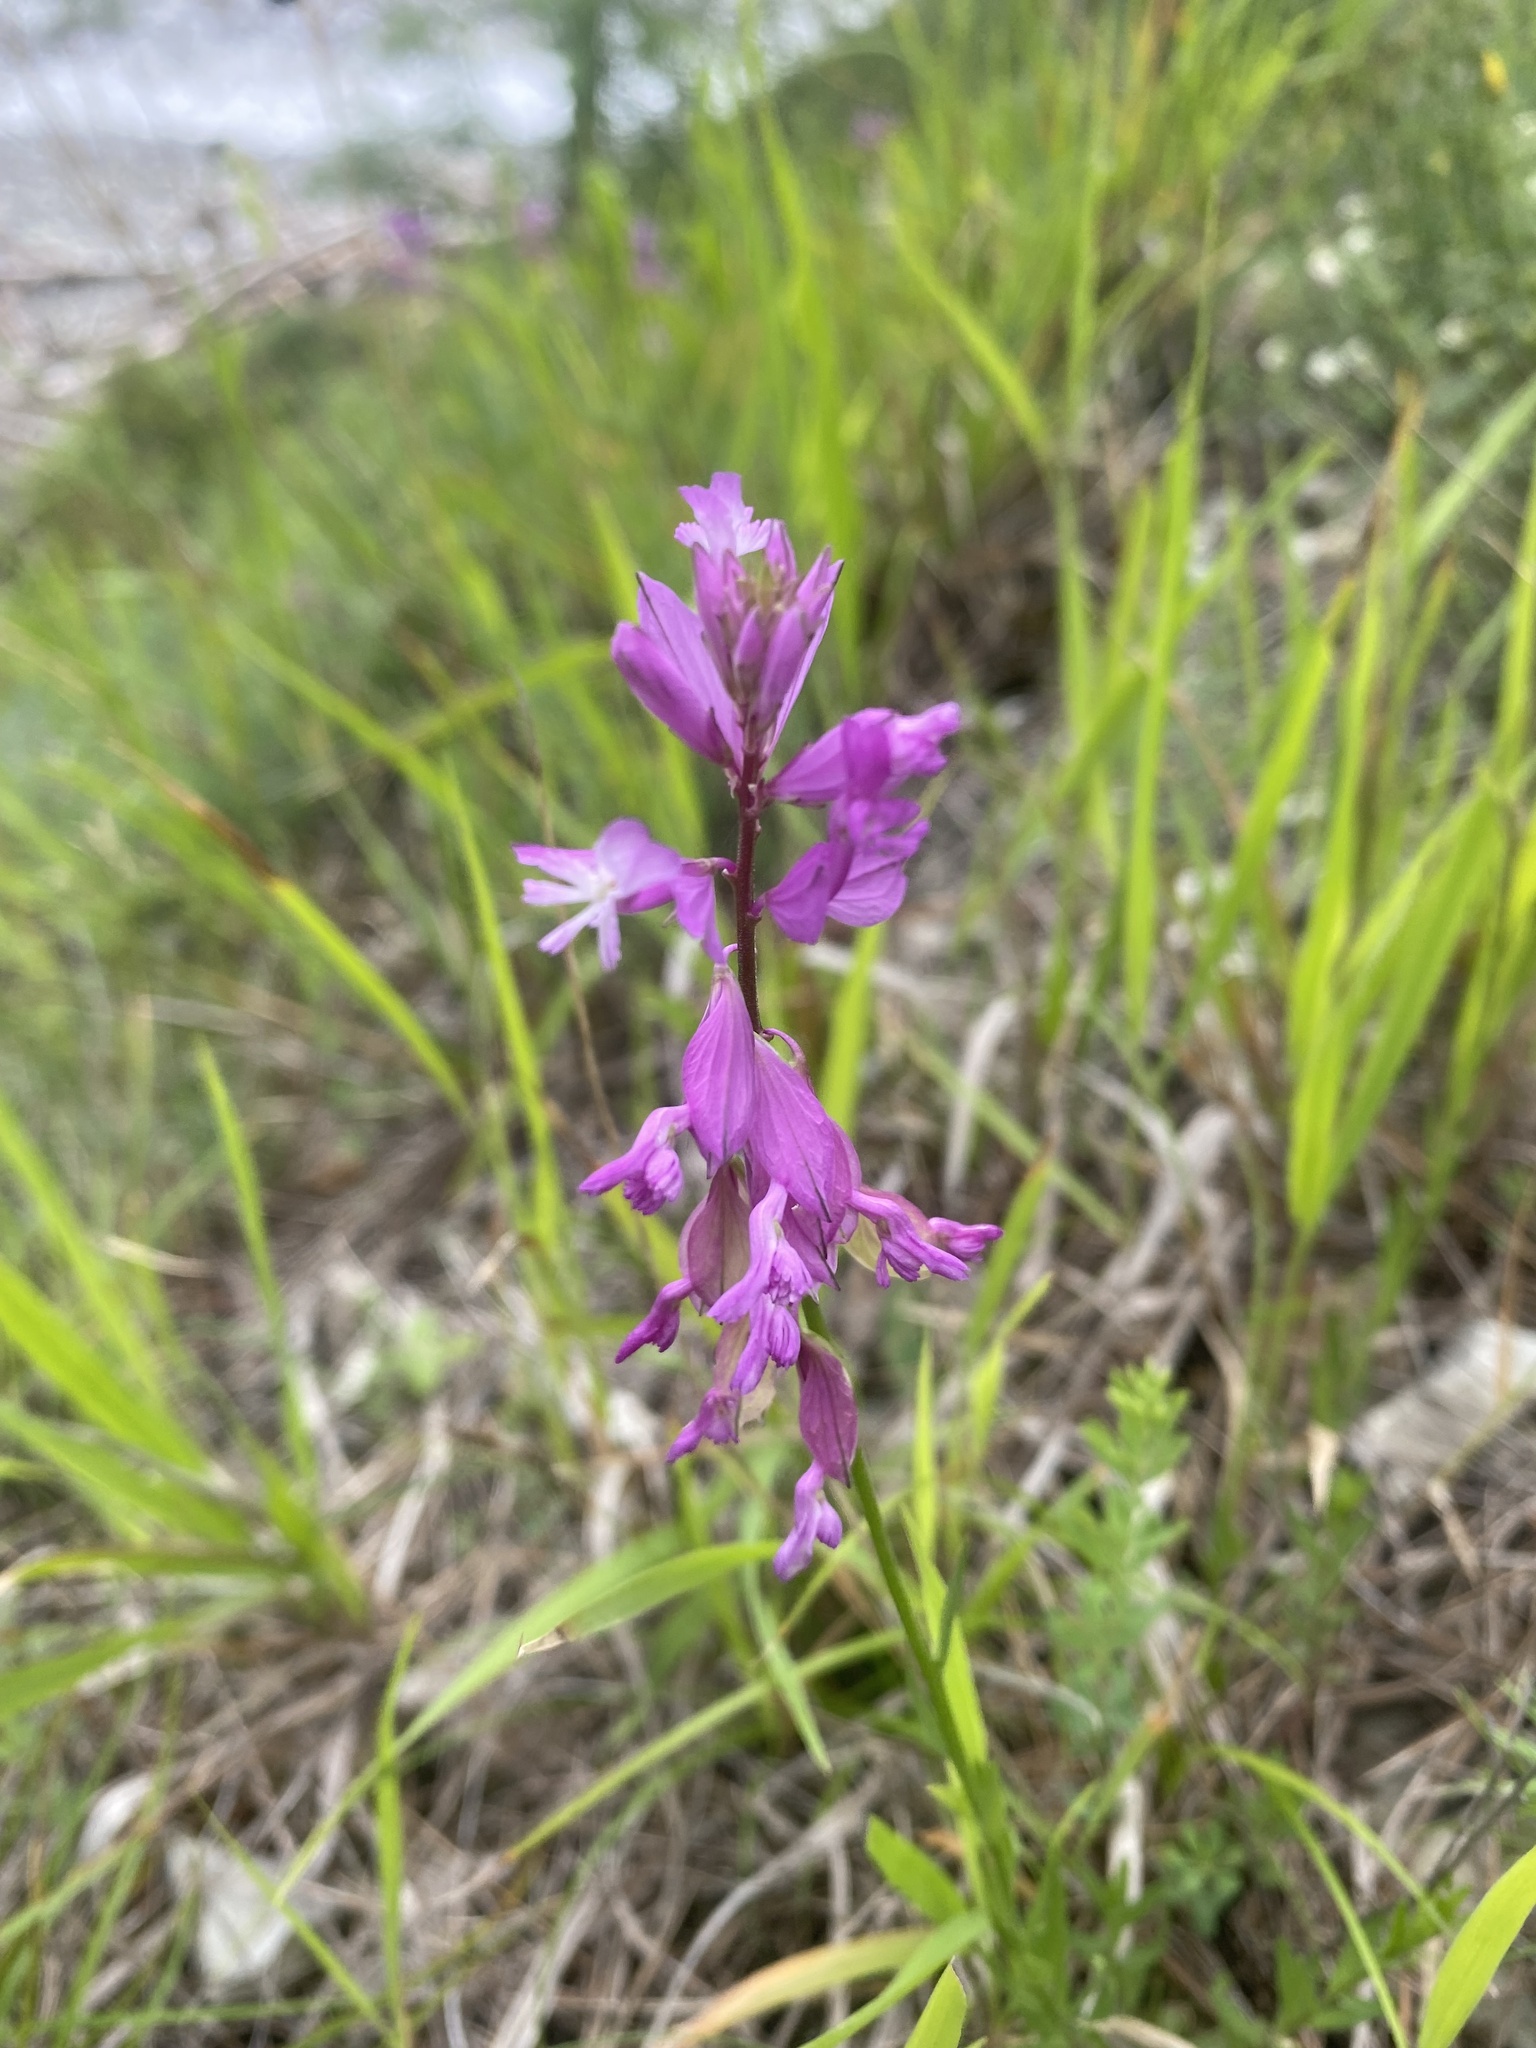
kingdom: Plantae
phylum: Tracheophyta
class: Magnoliopsida
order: Fabales
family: Polygalaceae
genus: Polygala
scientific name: Polygala major
